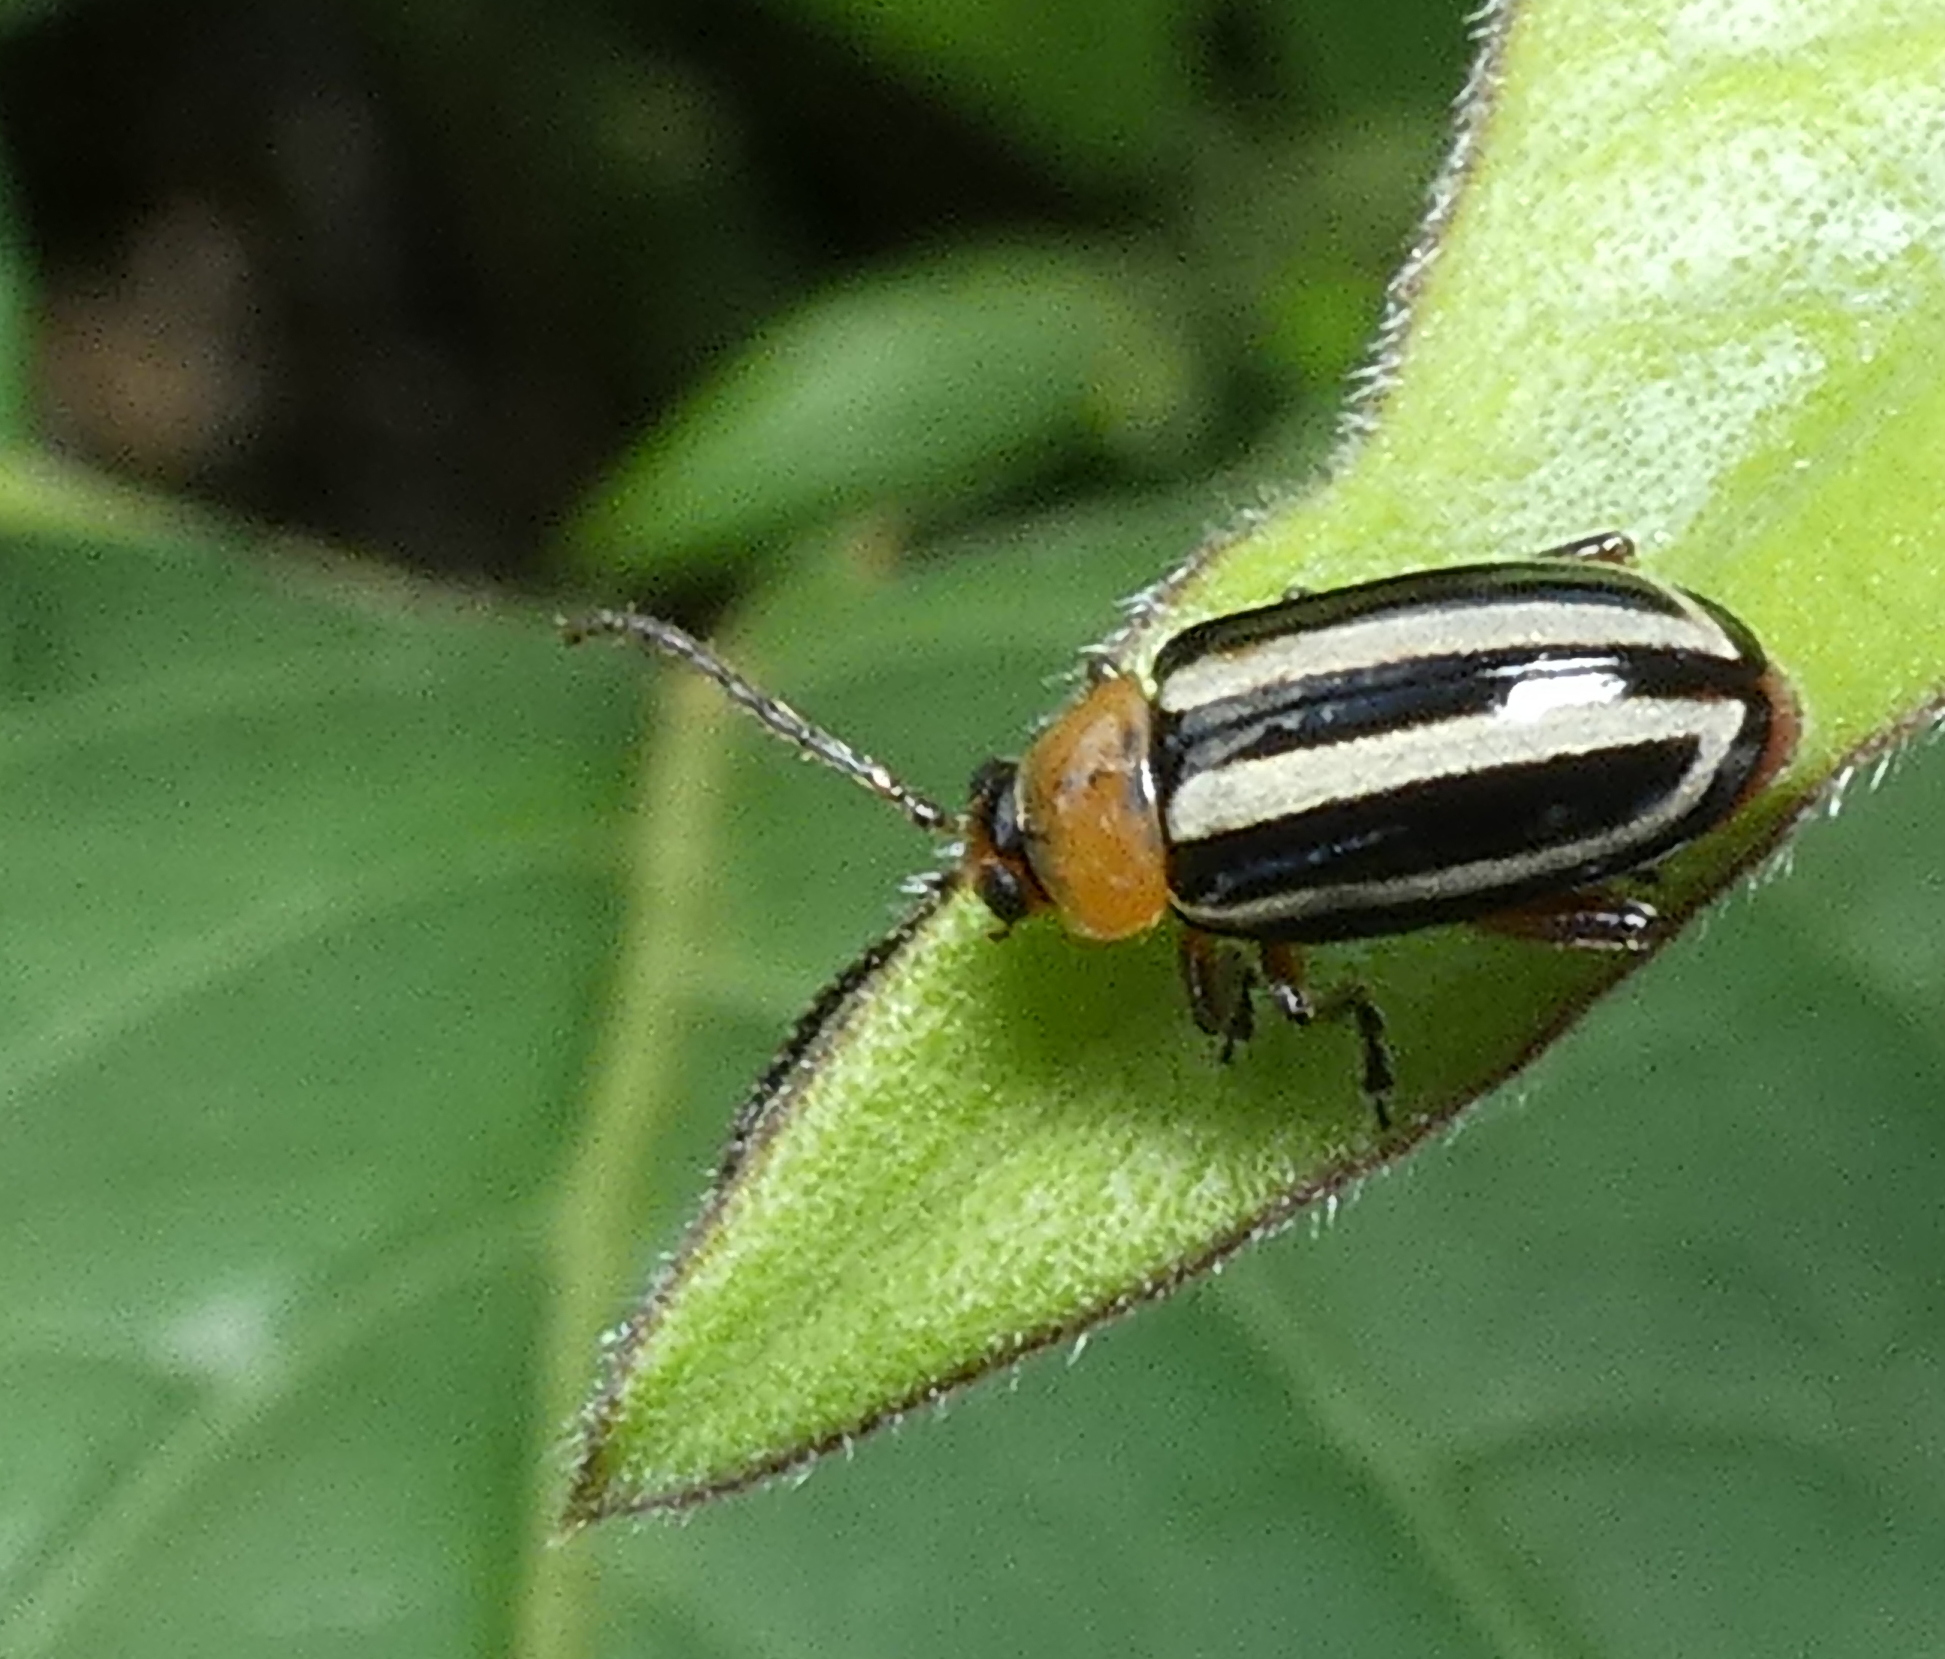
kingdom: Animalia
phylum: Arthropoda
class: Insecta
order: Coleoptera
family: Chrysomelidae
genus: Disonycha
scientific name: Disonycha glabrata
